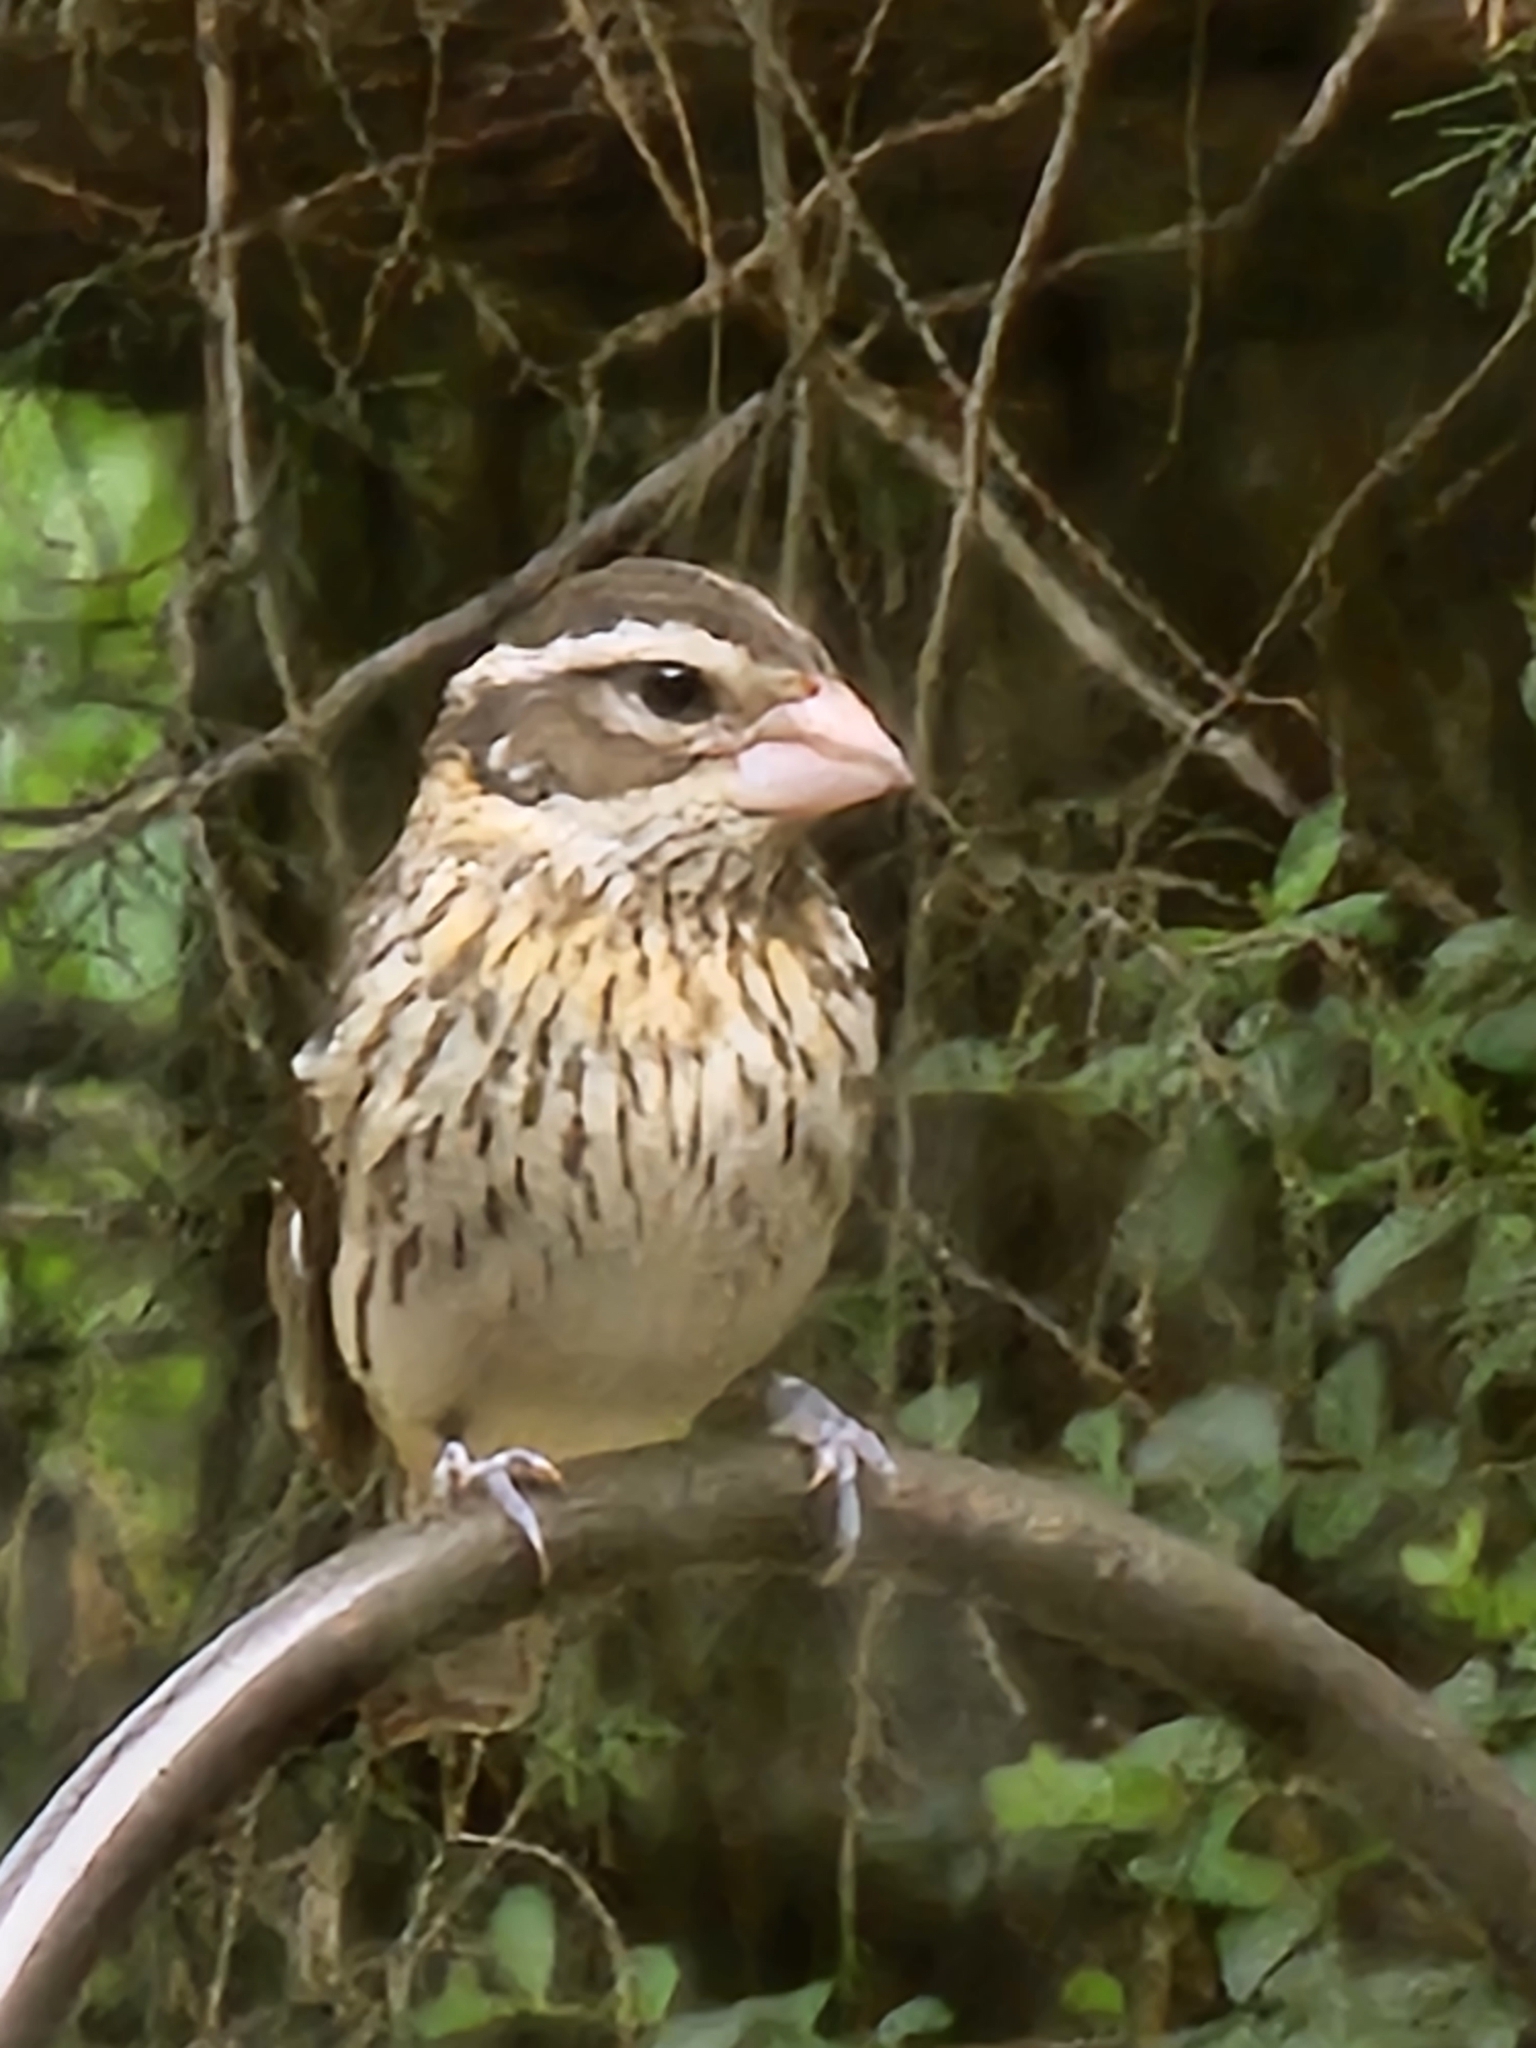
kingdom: Animalia
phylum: Chordata
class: Aves
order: Passeriformes
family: Cardinalidae
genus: Pheucticus
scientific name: Pheucticus ludovicianus
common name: Rose-breasted grosbeak
